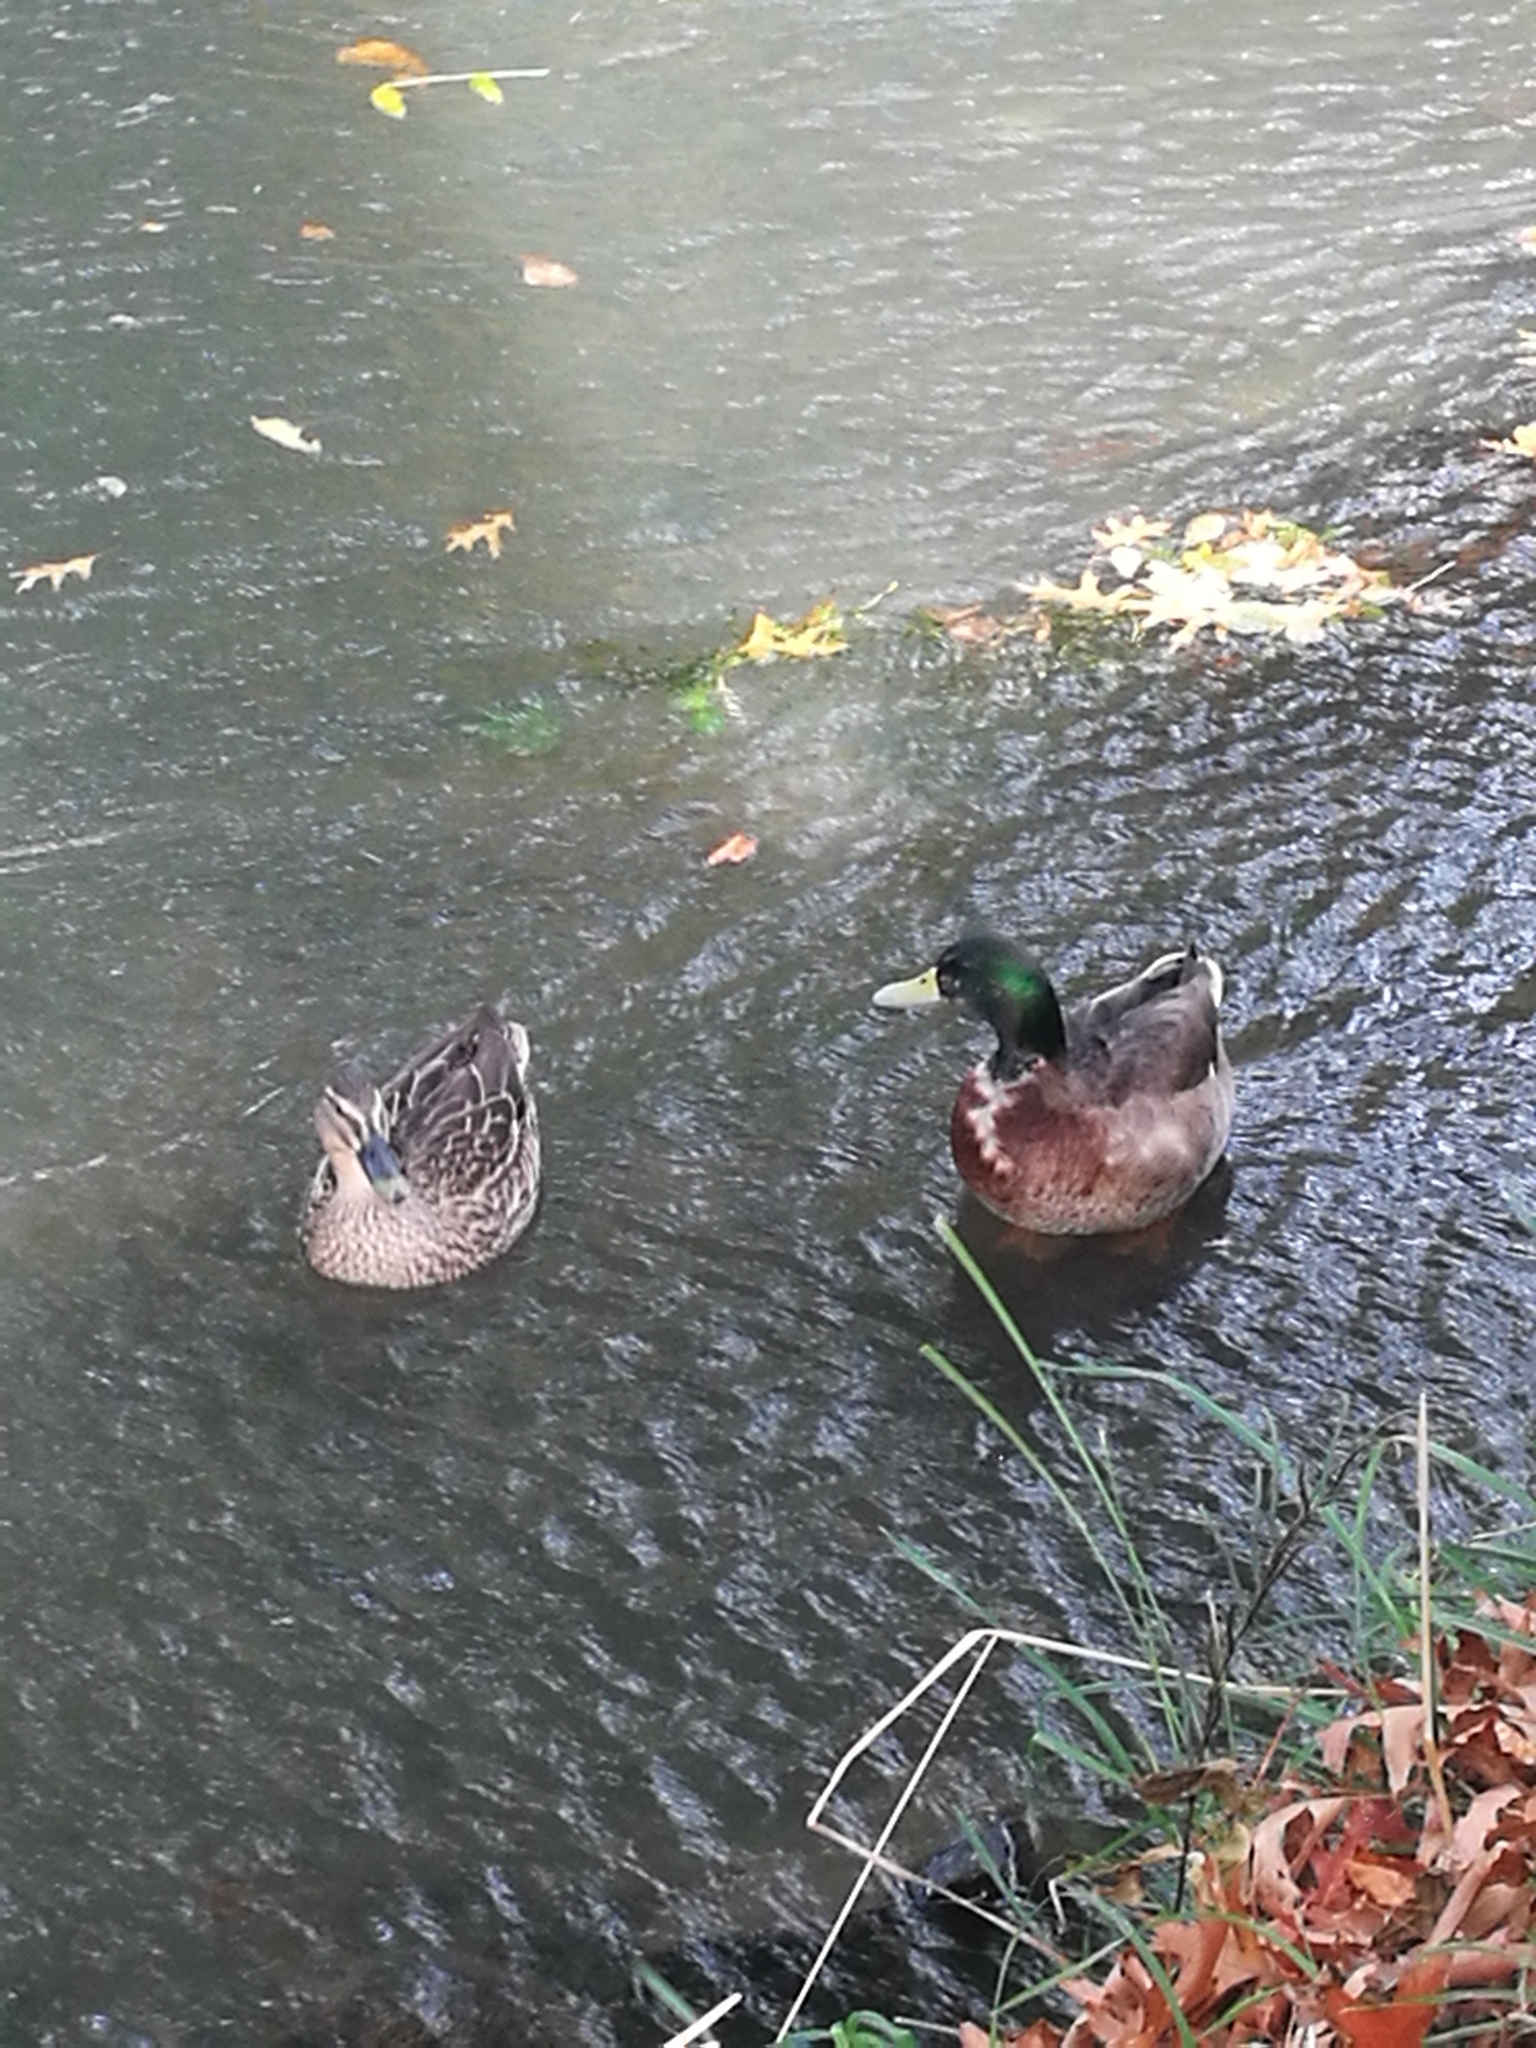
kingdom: Animalia
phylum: Chordata
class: Aves
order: Anseriformes
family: Anatidae
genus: Anas
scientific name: Anas
